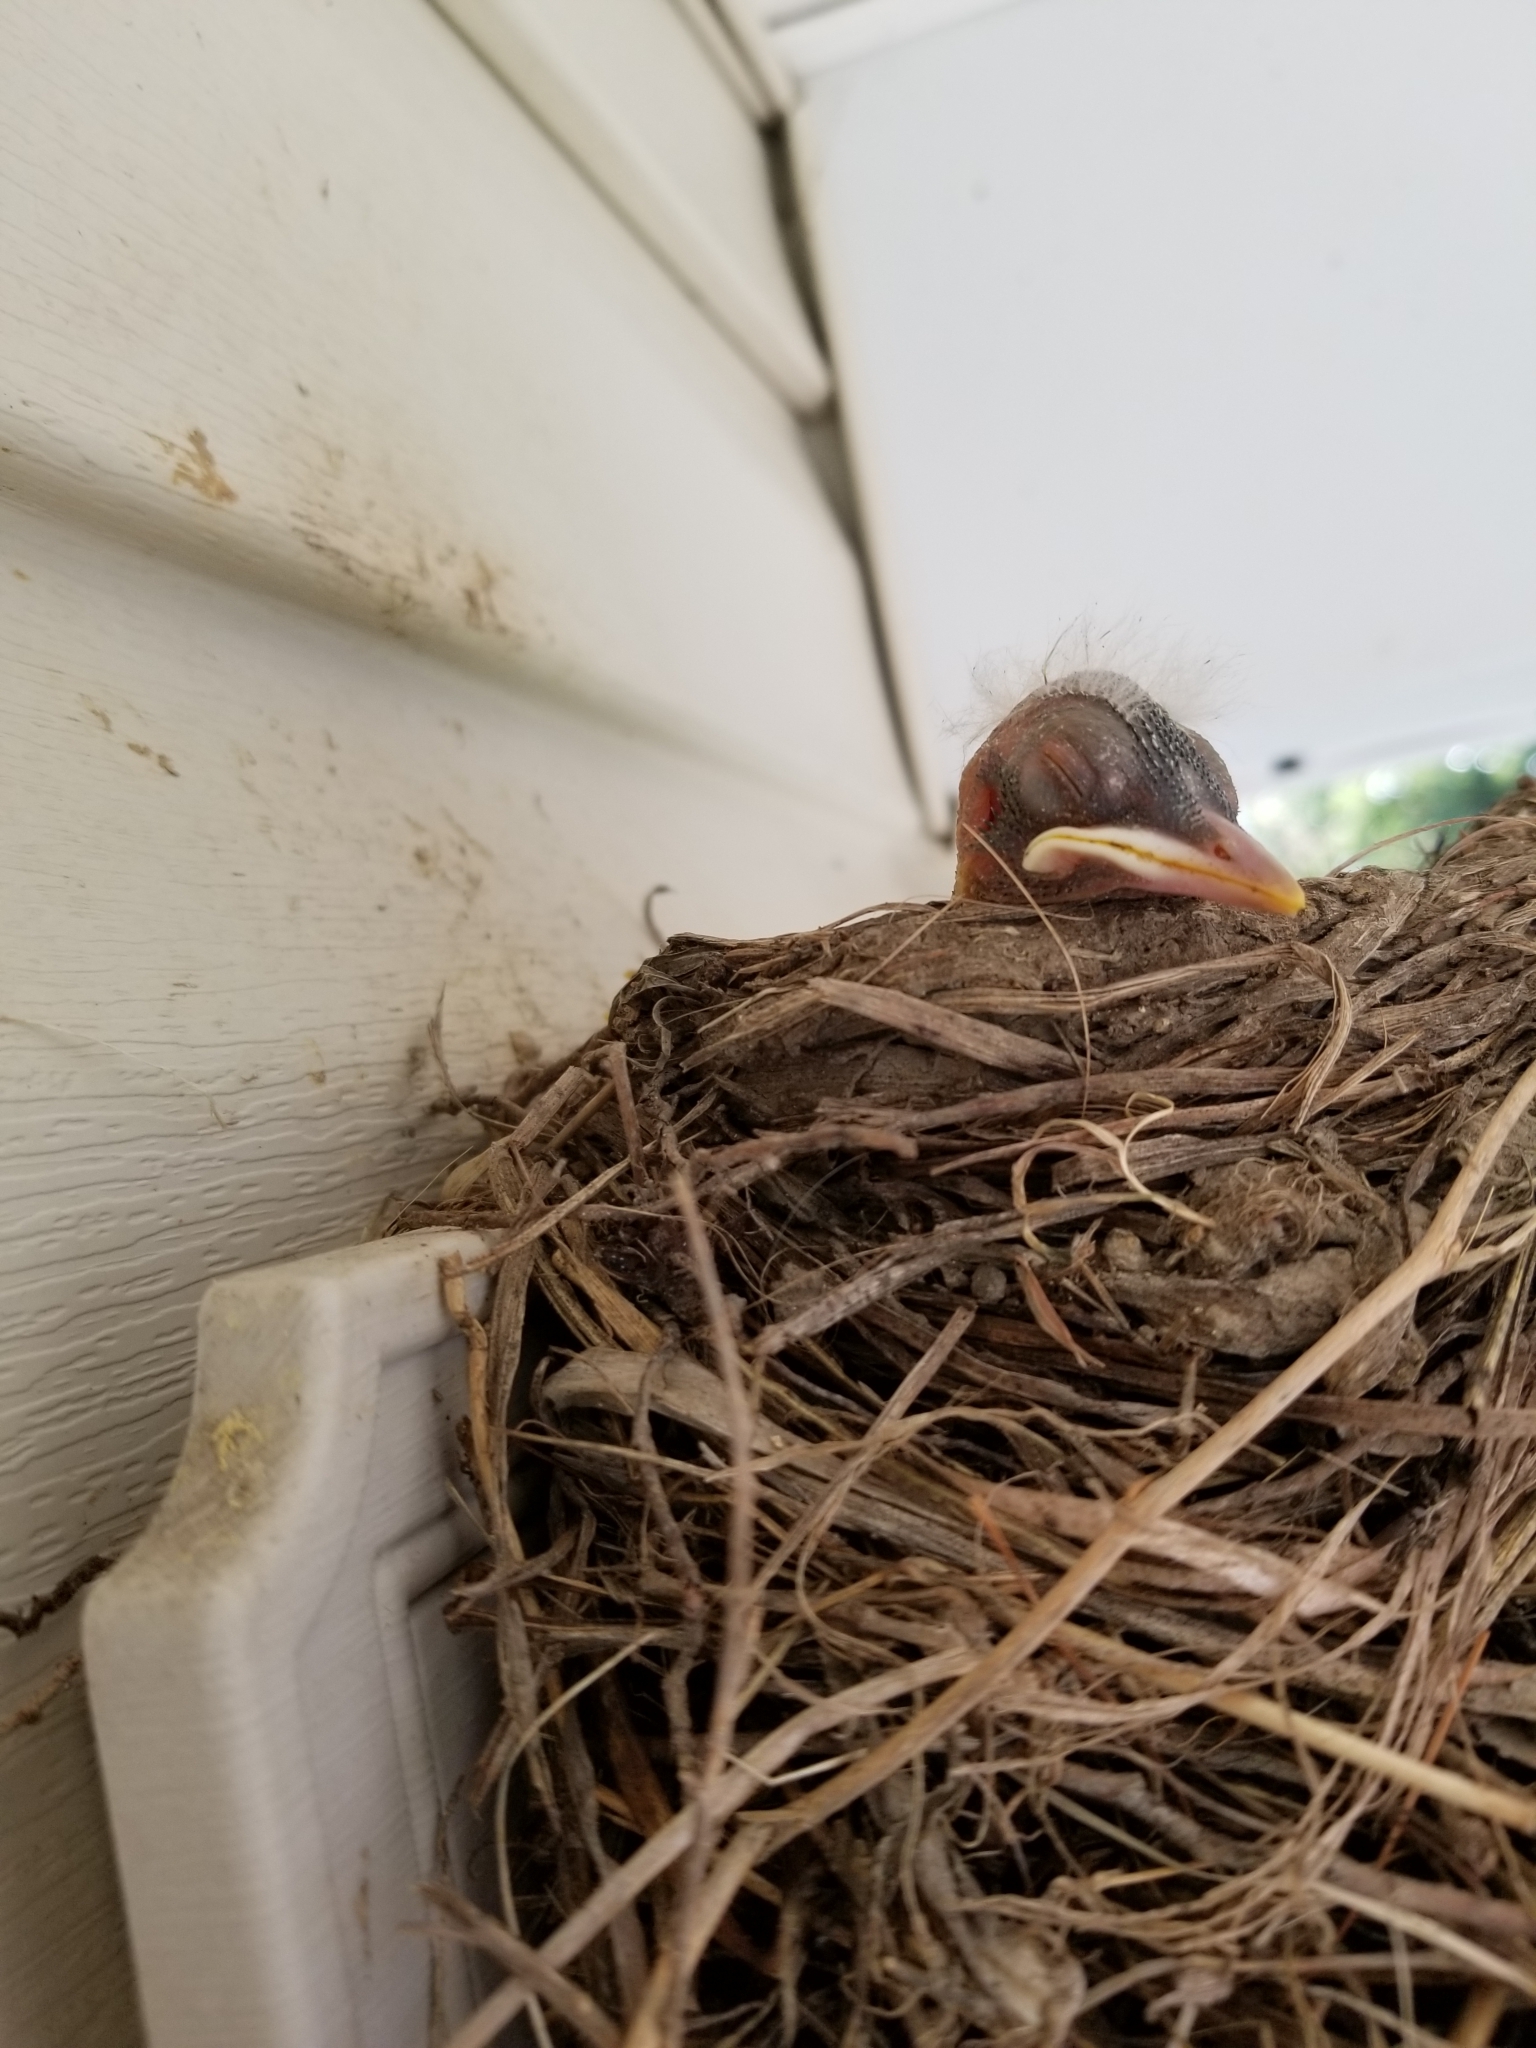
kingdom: Animalia
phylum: Chordata
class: Aves
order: Passeriformes
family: Turdidae
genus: Turdus
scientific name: Turdus migratorius
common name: American robin
